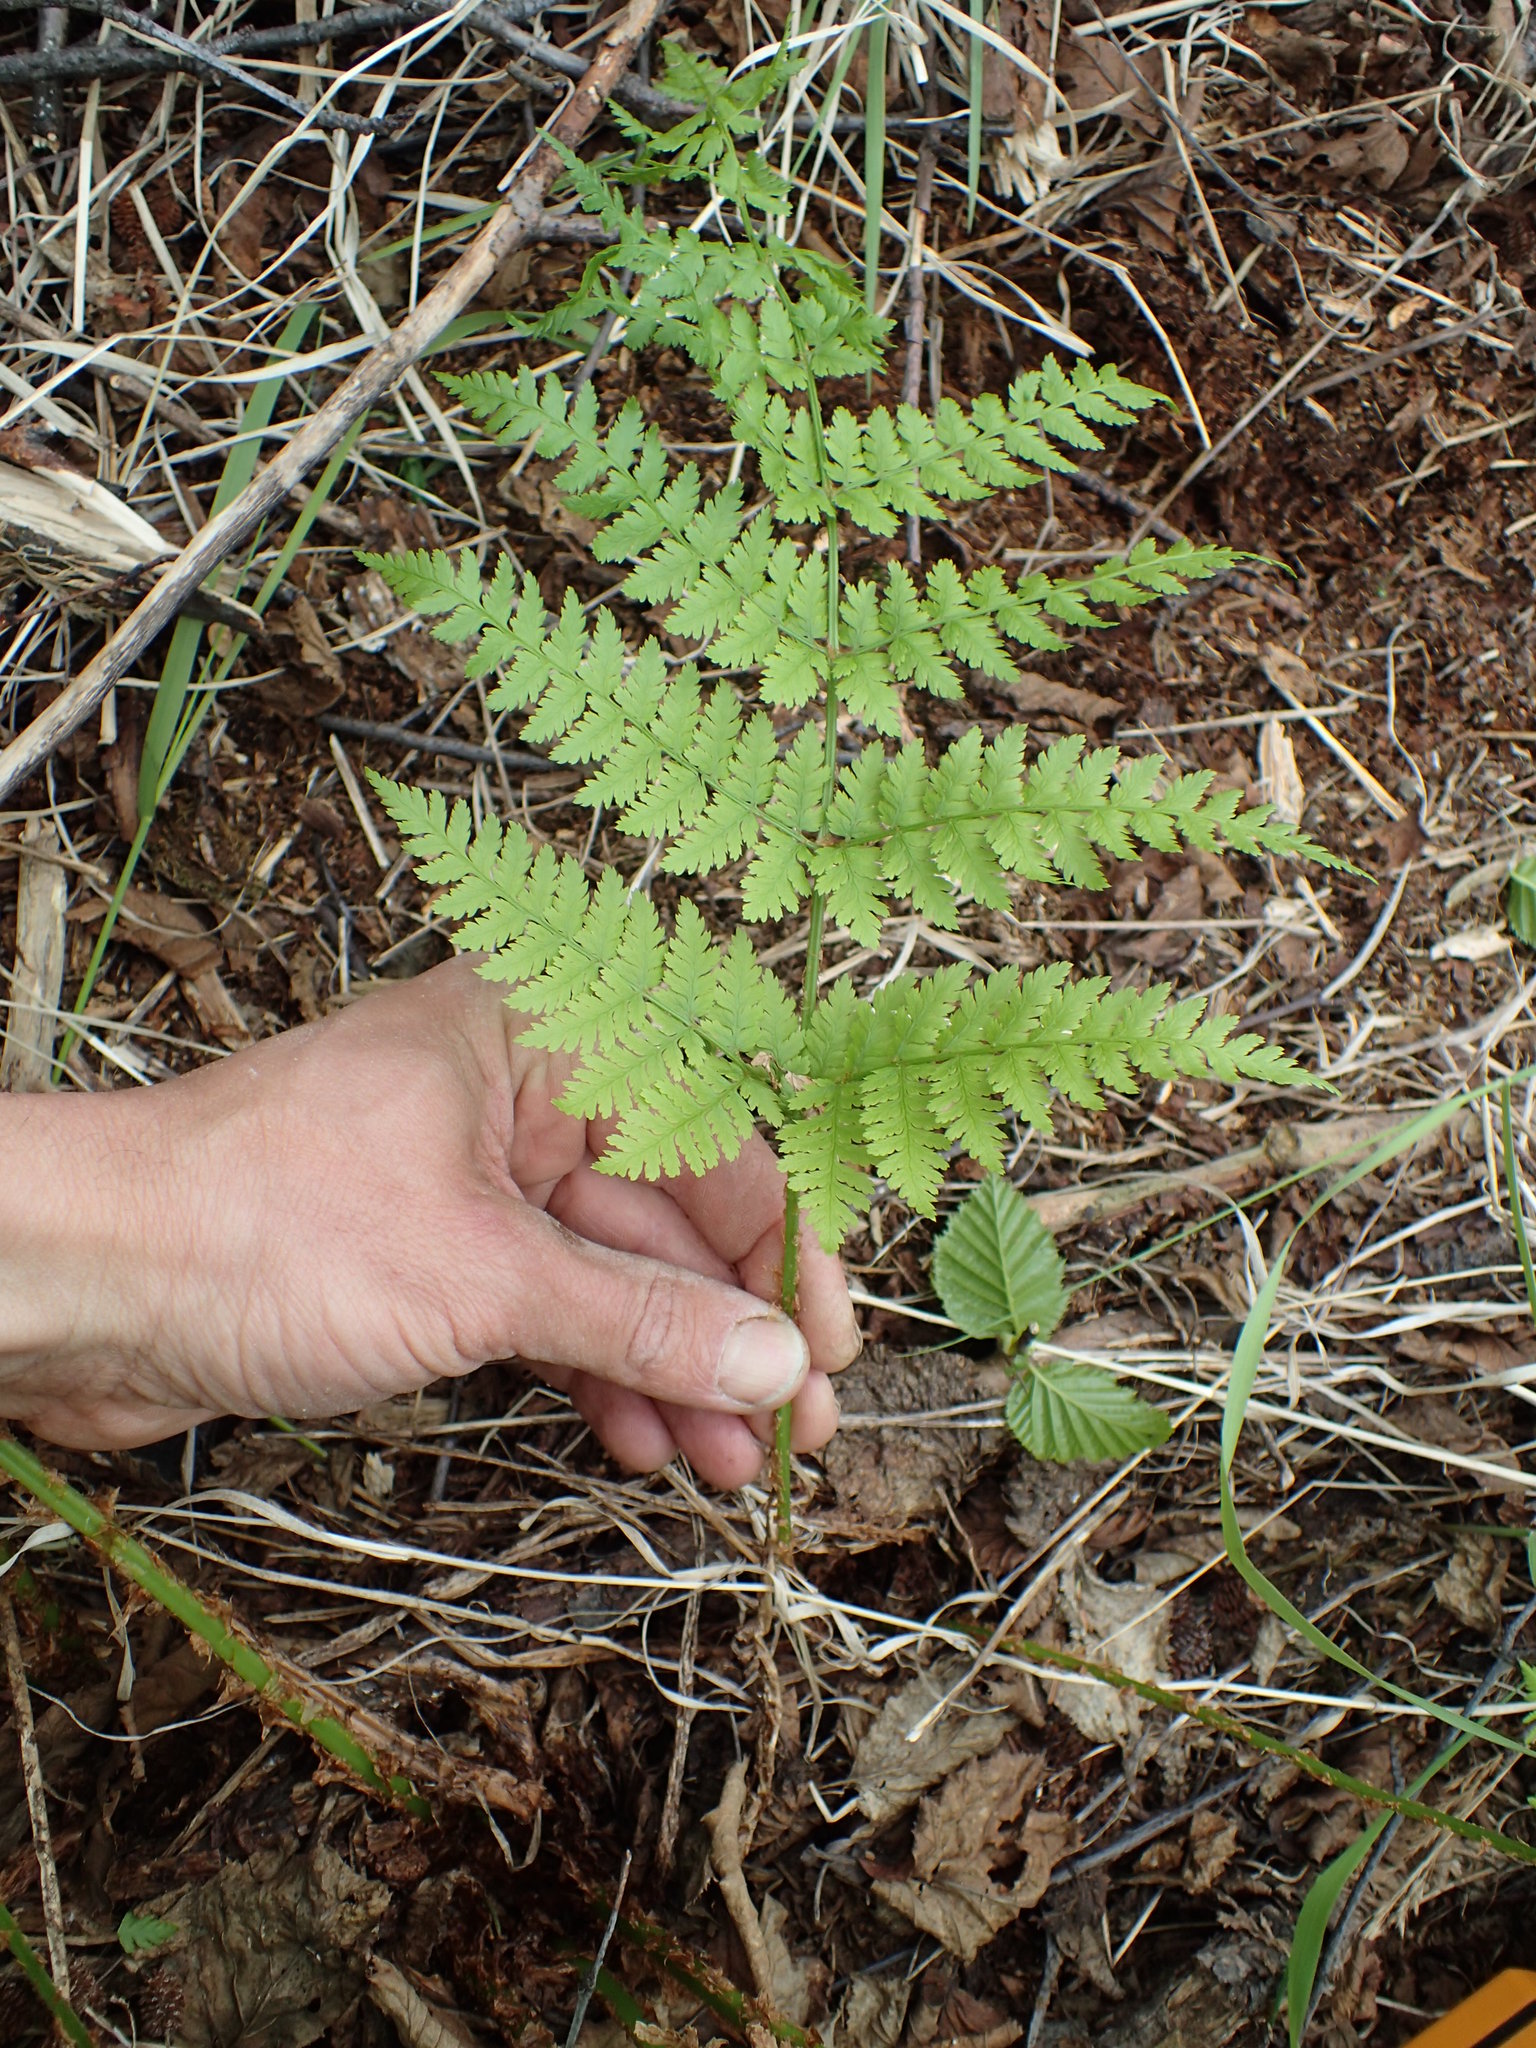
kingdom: Plantae
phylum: Tracheophyta
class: Polypodiopsida
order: Polypodiales
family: Dryopteridaceae
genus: Dryopteris
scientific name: Dryopteris expansa
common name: Northern buckler fern
